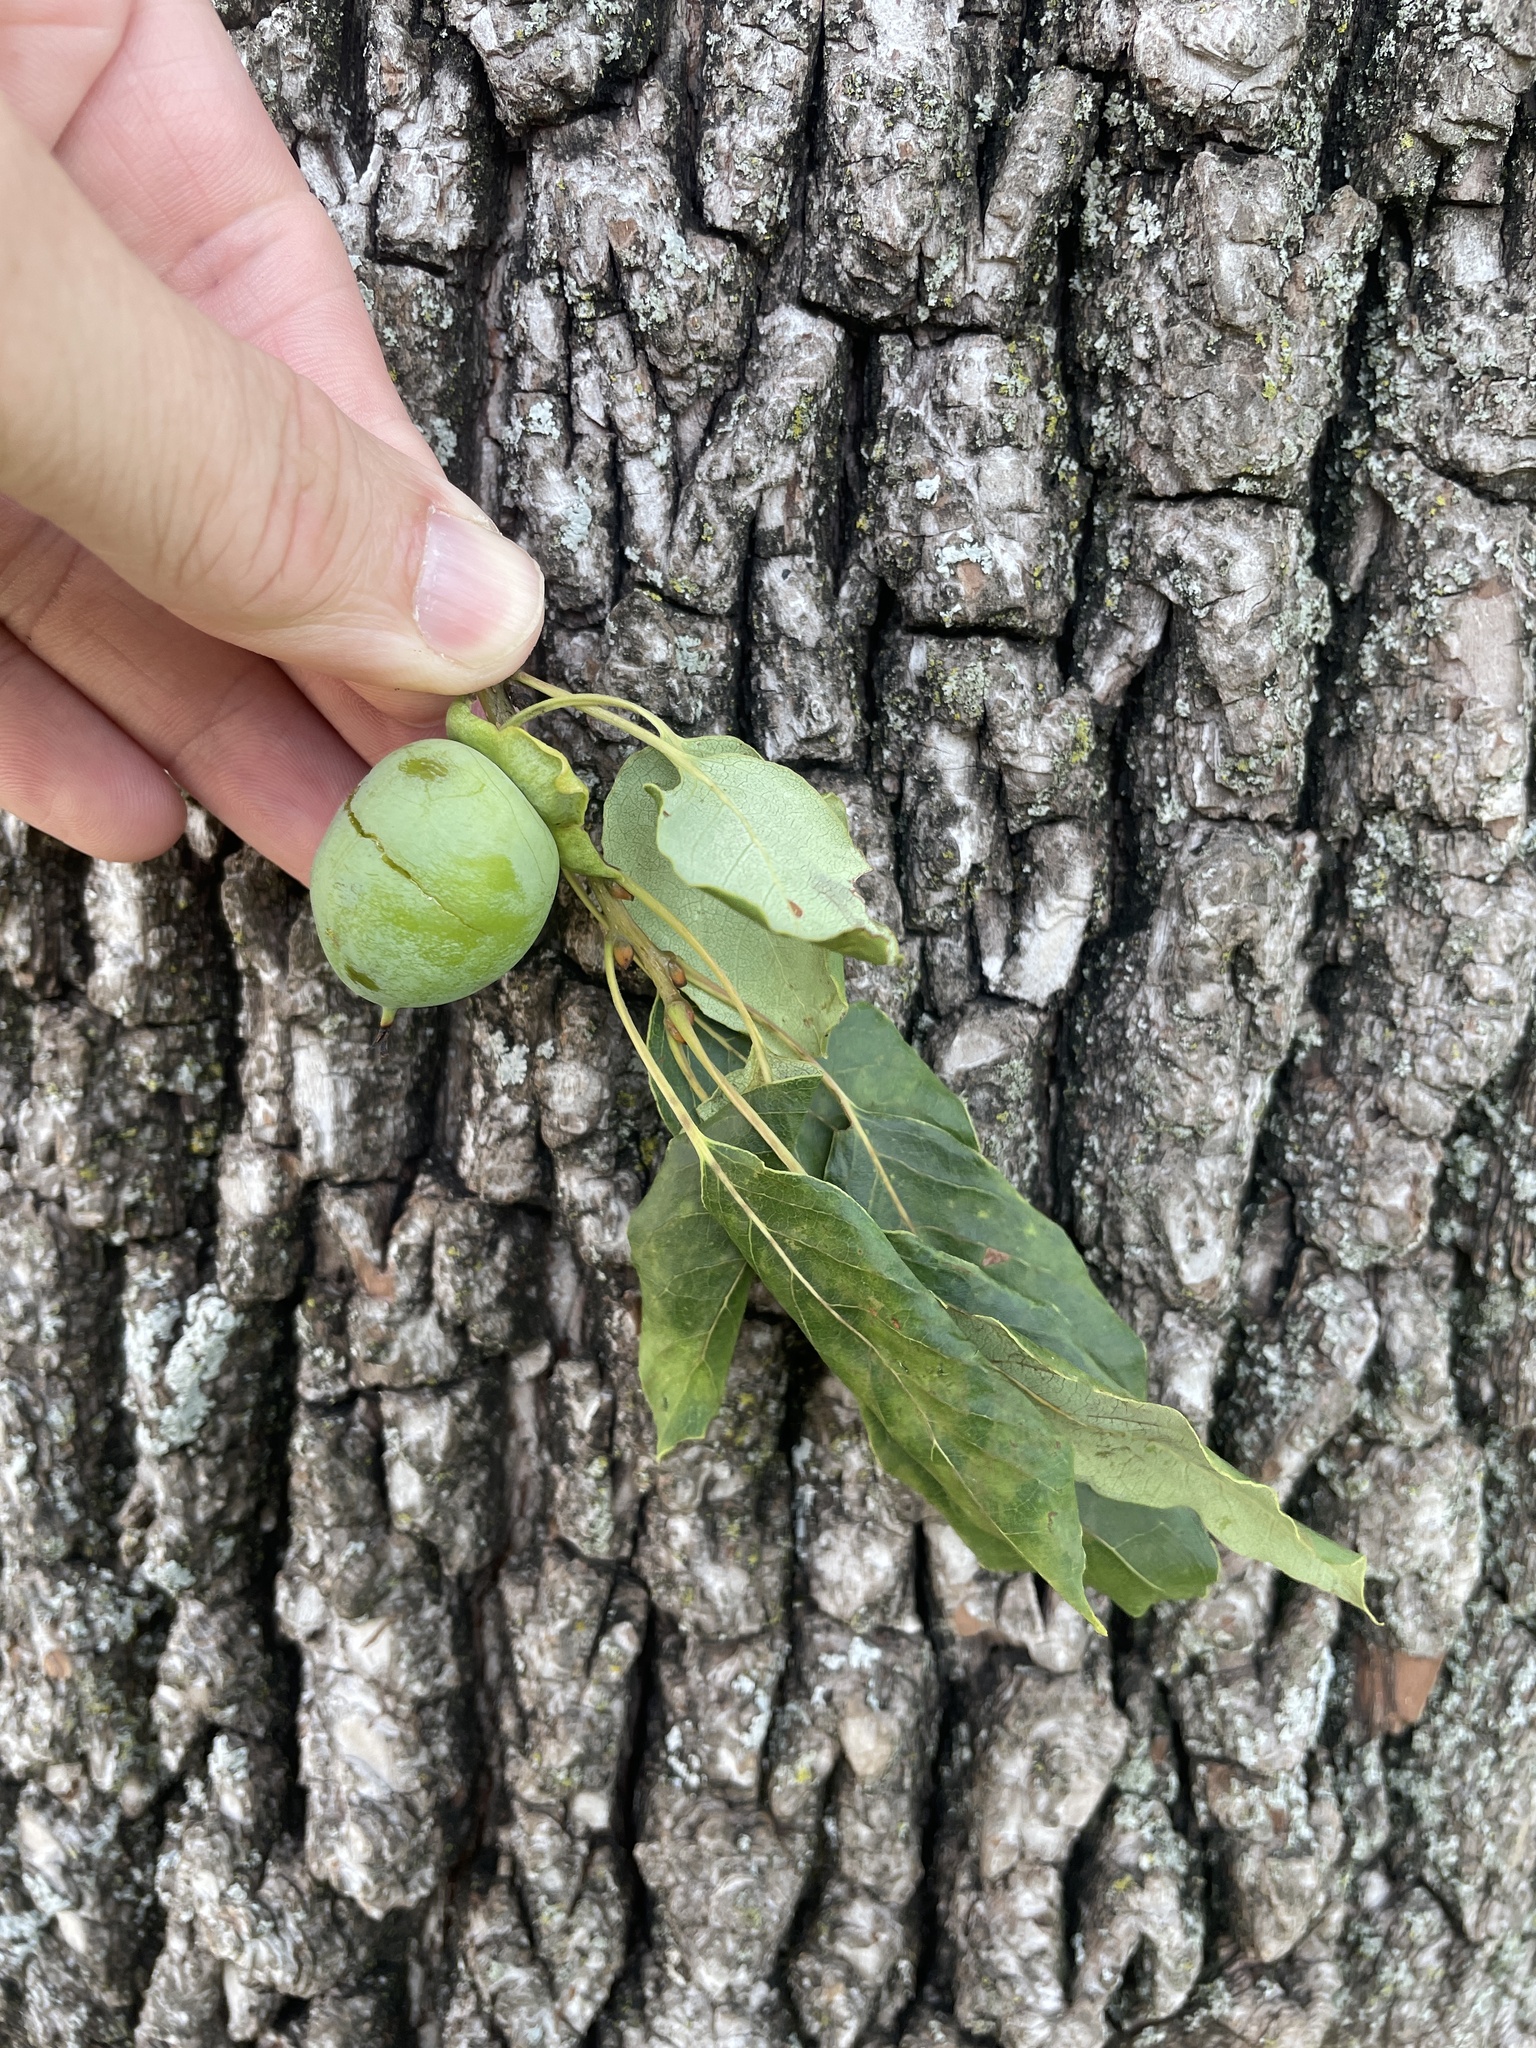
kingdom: Plantae
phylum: Tracheophyta
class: Magnoliopsida
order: Ericales
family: Ebenaceae
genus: Diospyros
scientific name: Diospyros virginiana
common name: Persimmon
